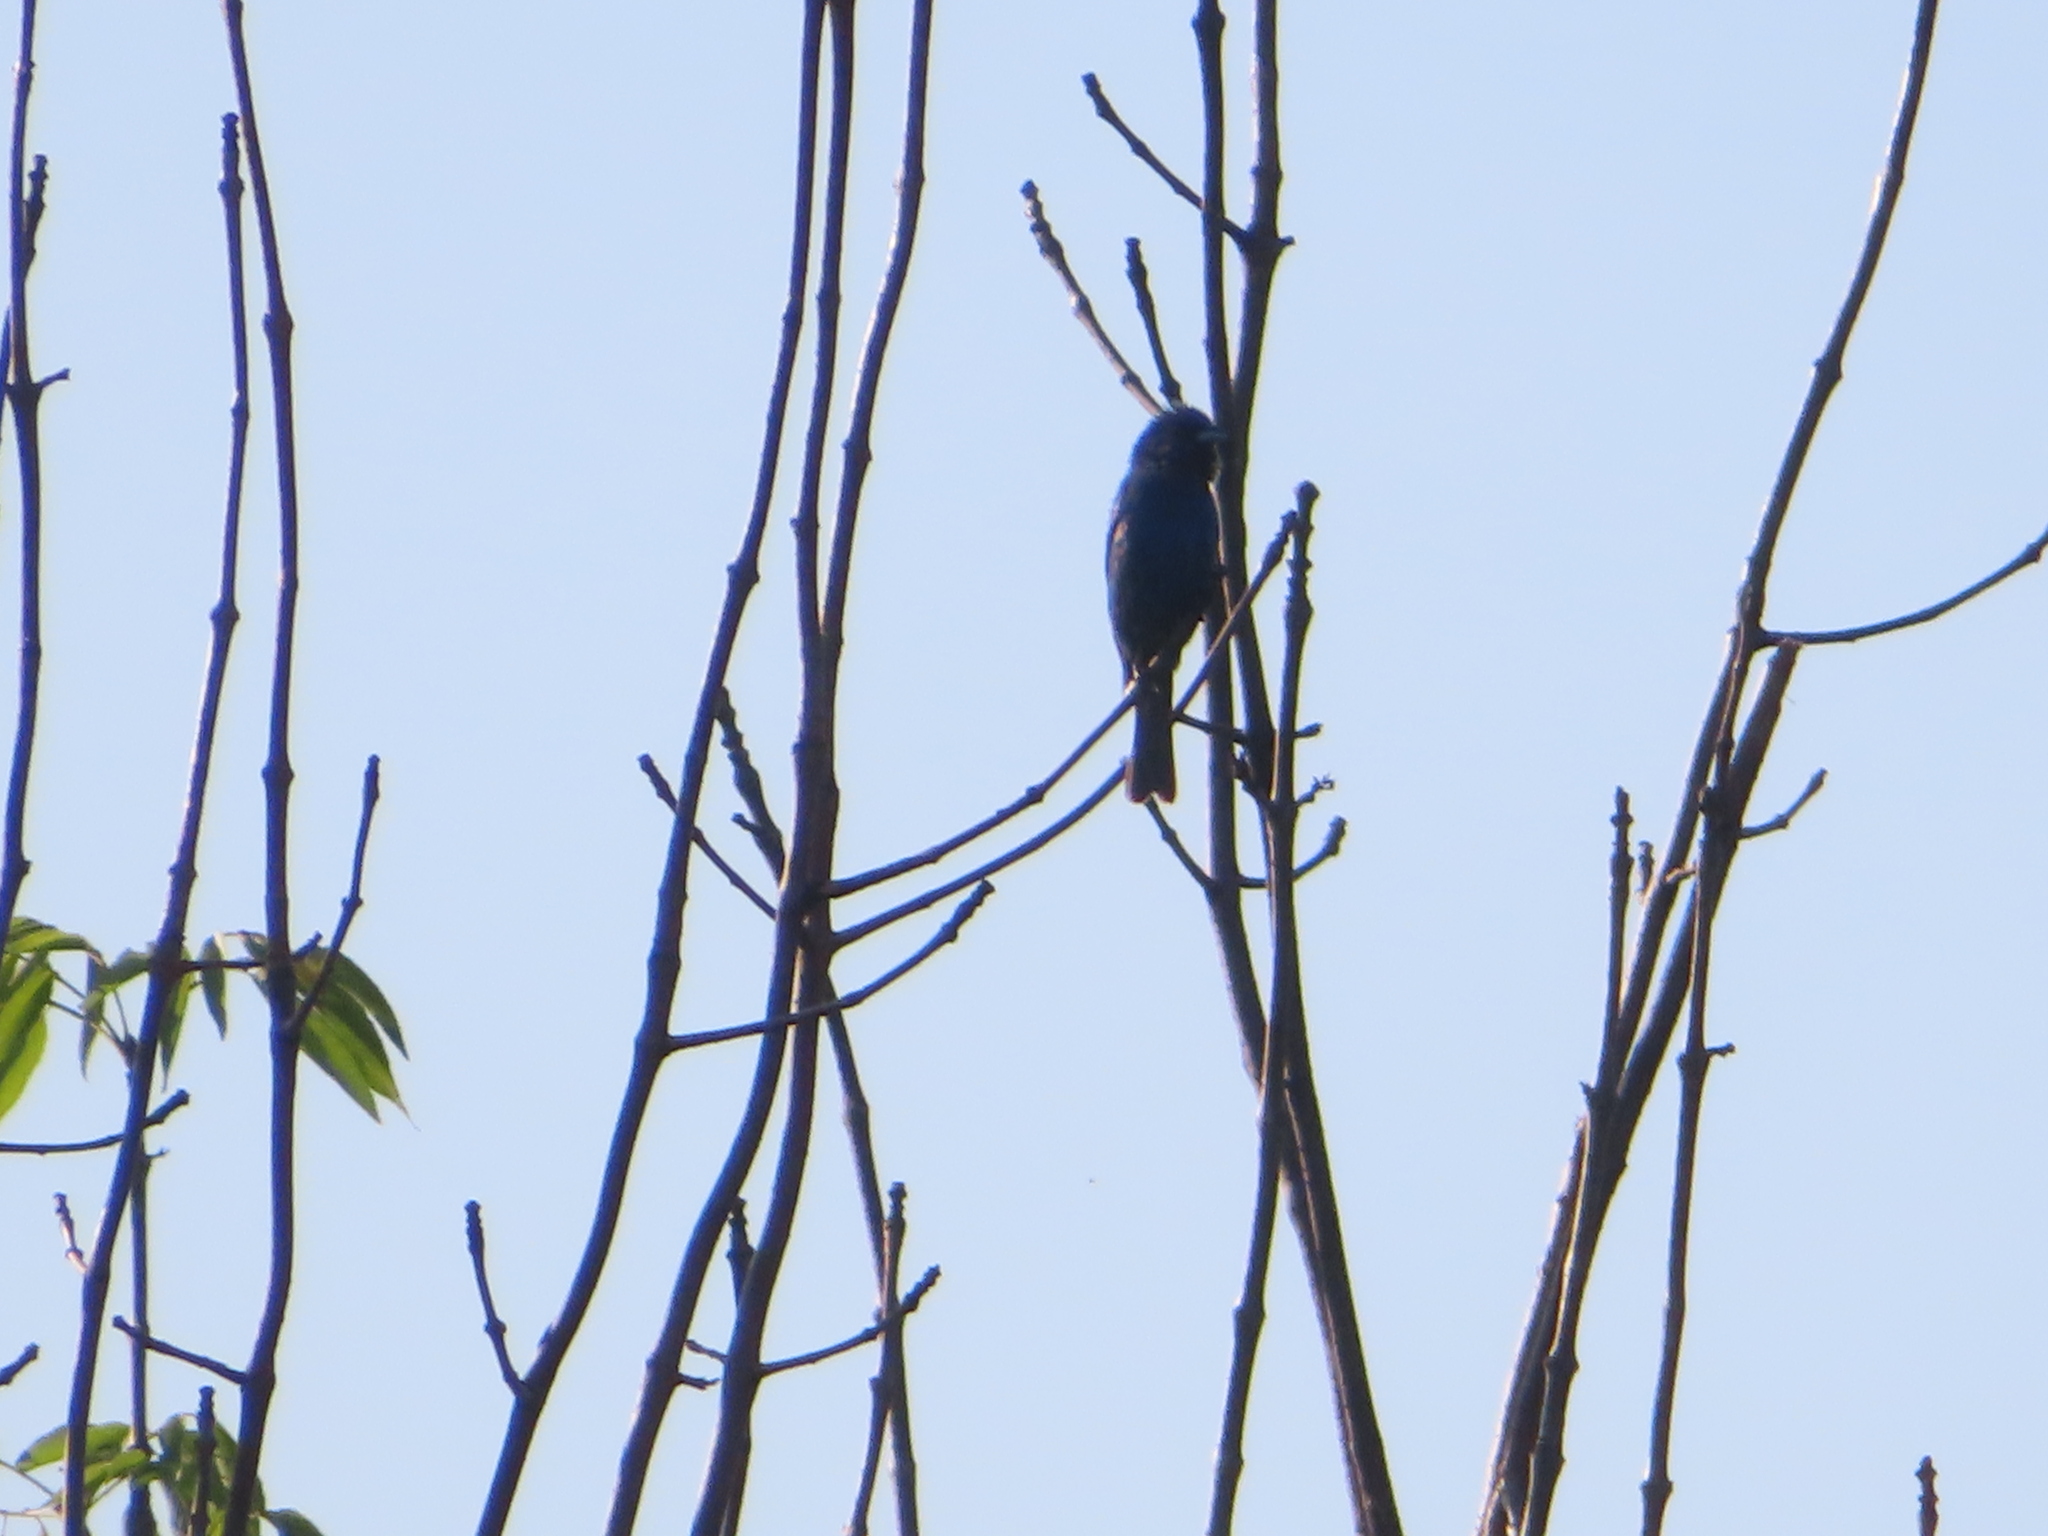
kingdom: Animalia
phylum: Chordata
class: Aves
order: Passeriformes
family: Cardinalidae
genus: Passerina
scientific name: Passerina cyanea
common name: Indigo bunting
